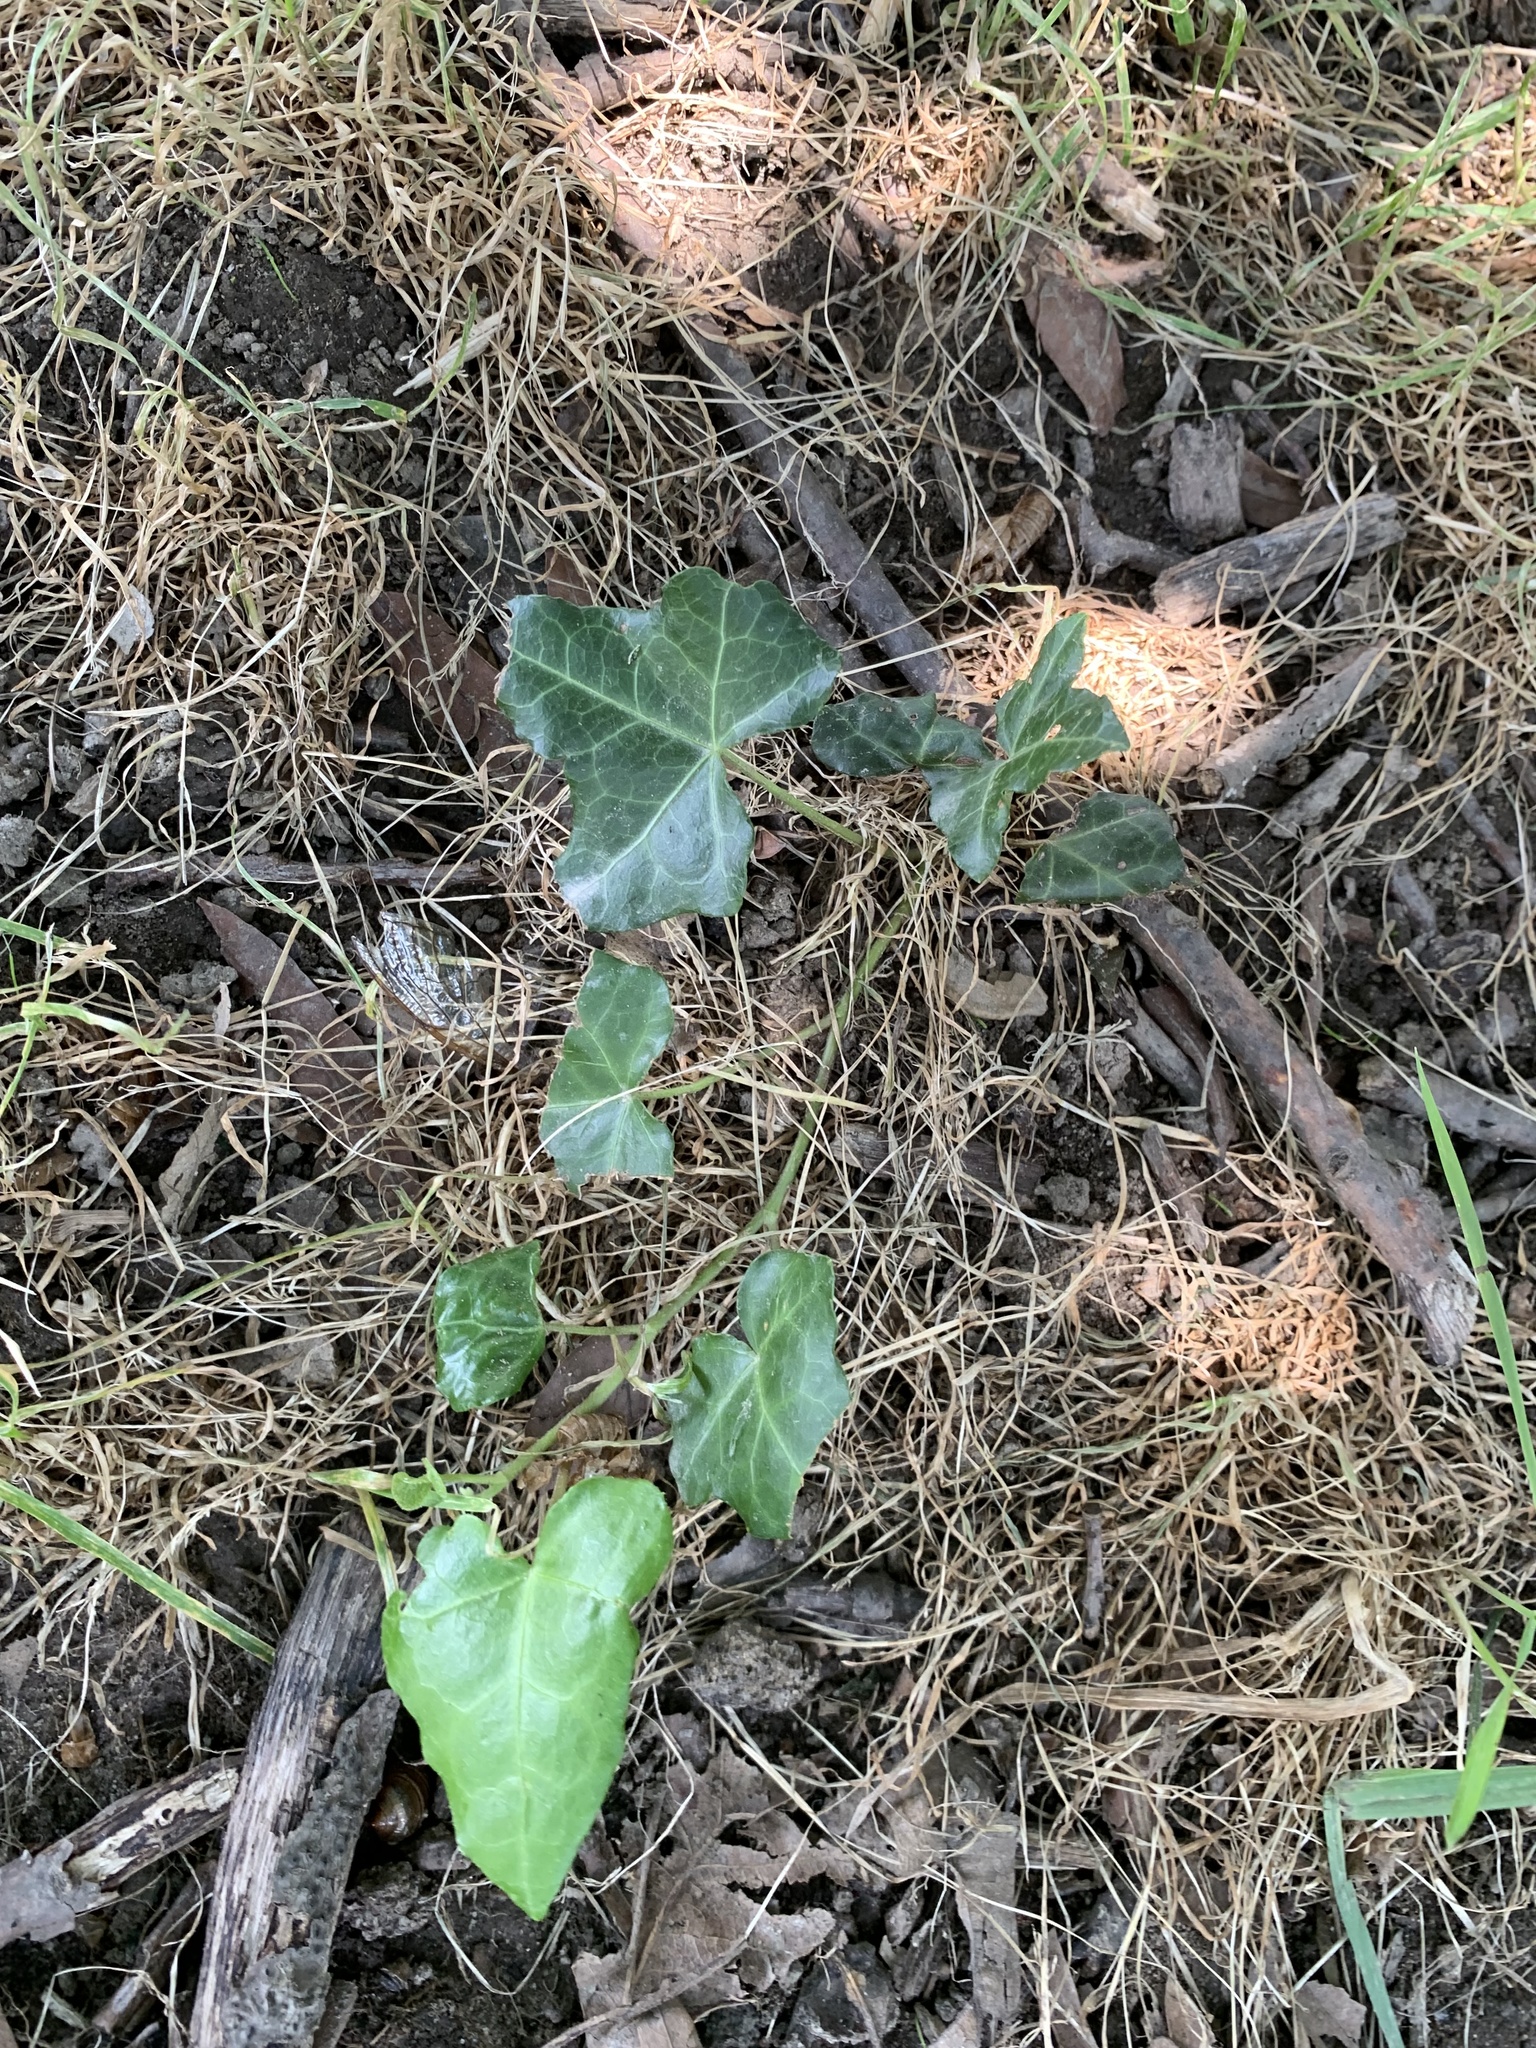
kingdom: Plantae
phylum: Tracheophyta
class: Magnoliopsida
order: Apiales
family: Araliaceae
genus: Hedera
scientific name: Hedera helix
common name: Ivy
